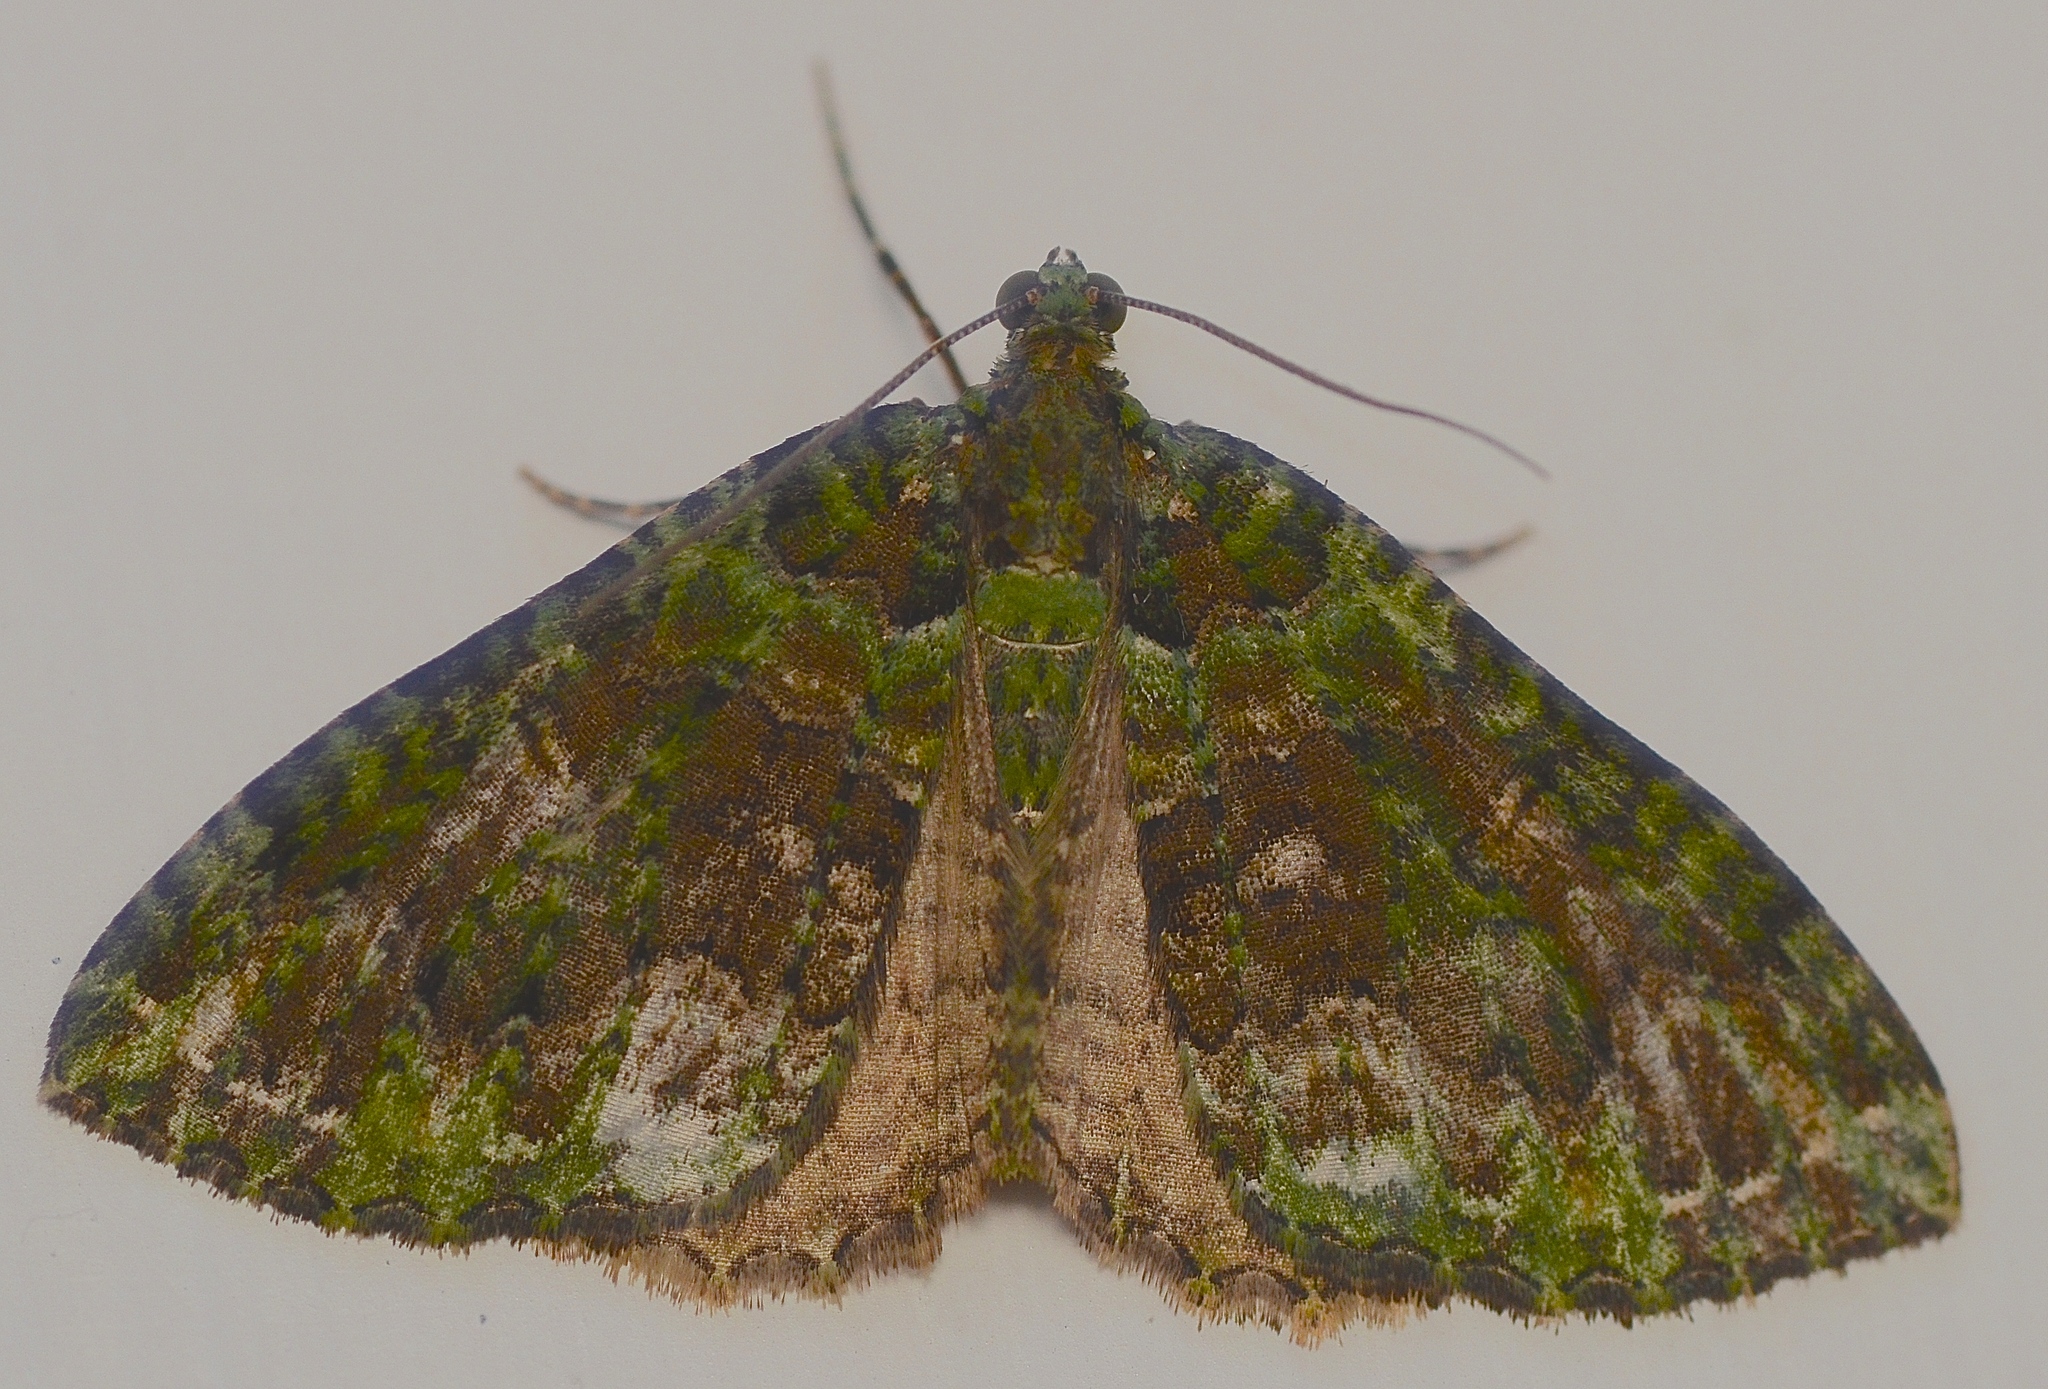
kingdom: Animalia
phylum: Arthropoda
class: Insecta
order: Lepidoptera
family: Geometridae
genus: Austrocidaria
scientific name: Austrocidaria similata
